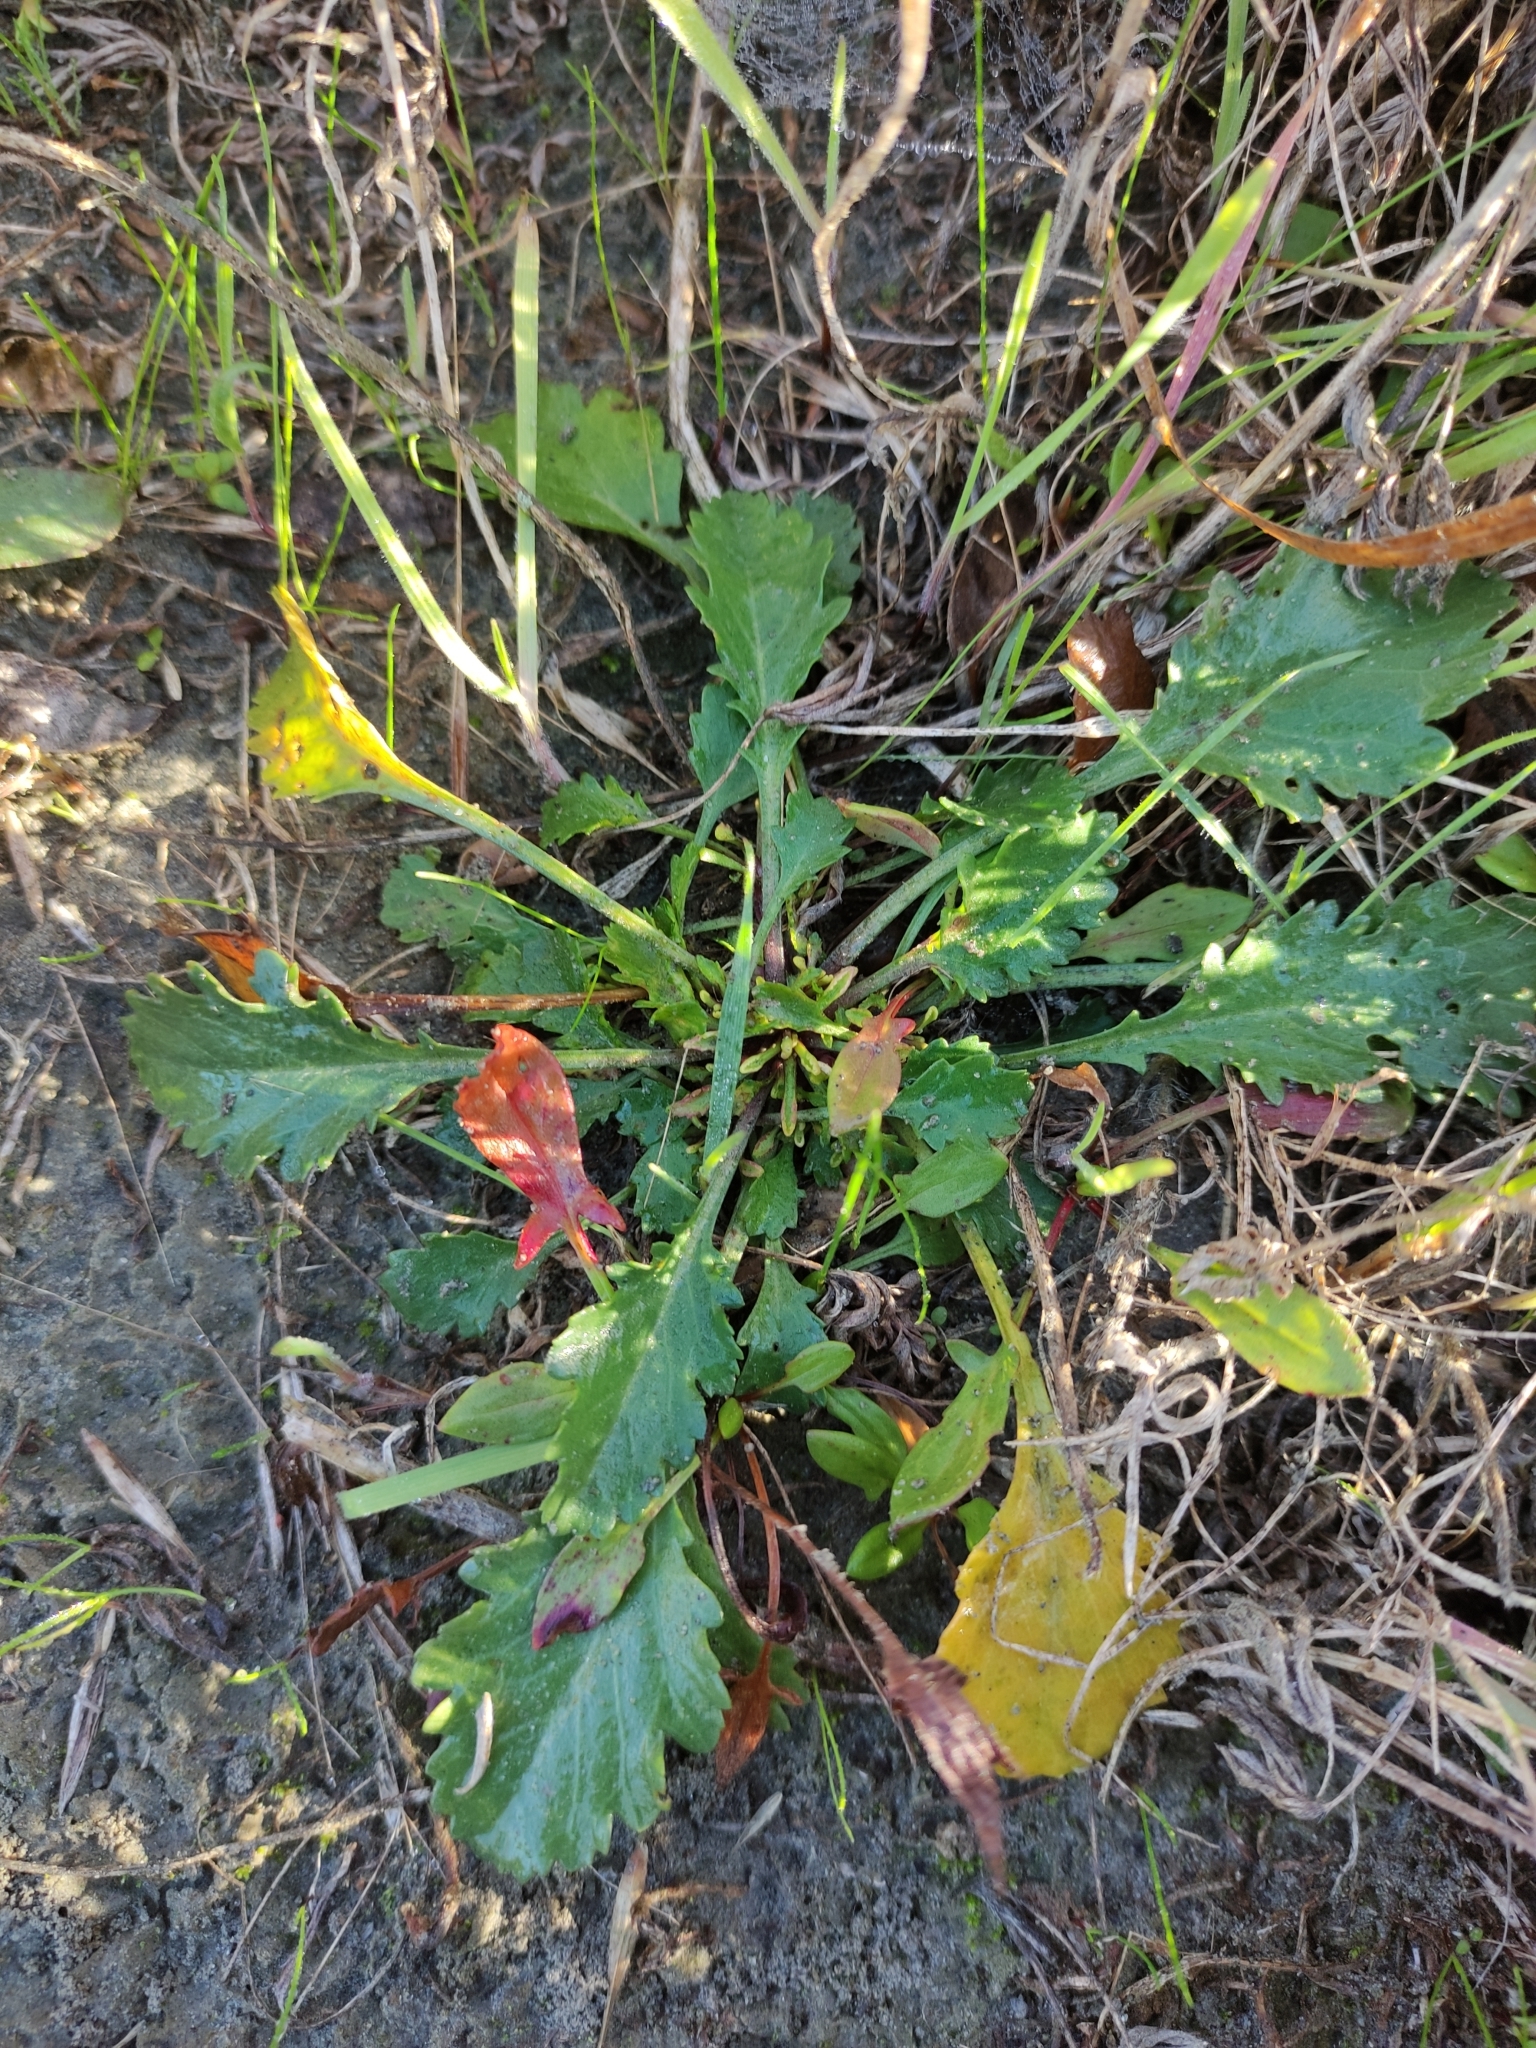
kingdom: Plantae
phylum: Tracheophyta
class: Magnoliopsida
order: Asterales
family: Asteraceae
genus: Leucanthemum
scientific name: Leucanthemum vulgare
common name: Oxeye daisy
